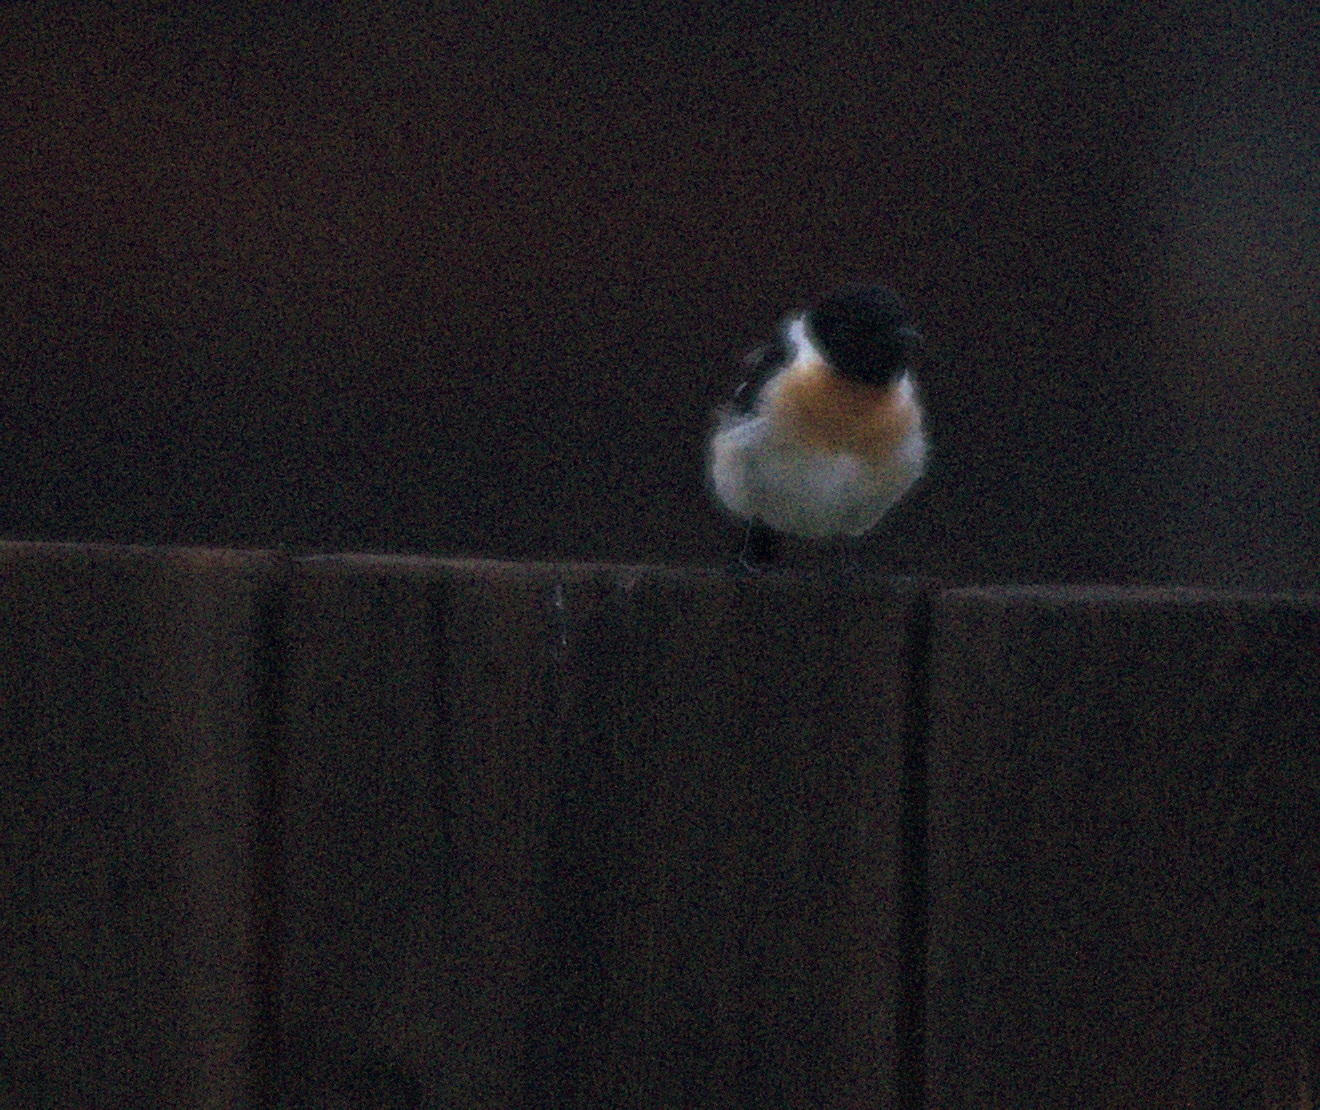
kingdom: Animalia
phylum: Chordata
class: Aves
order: Passeriformes
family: Muscicapidae
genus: Saxicola
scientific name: Saxicola maurus
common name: Siberian stonechat
